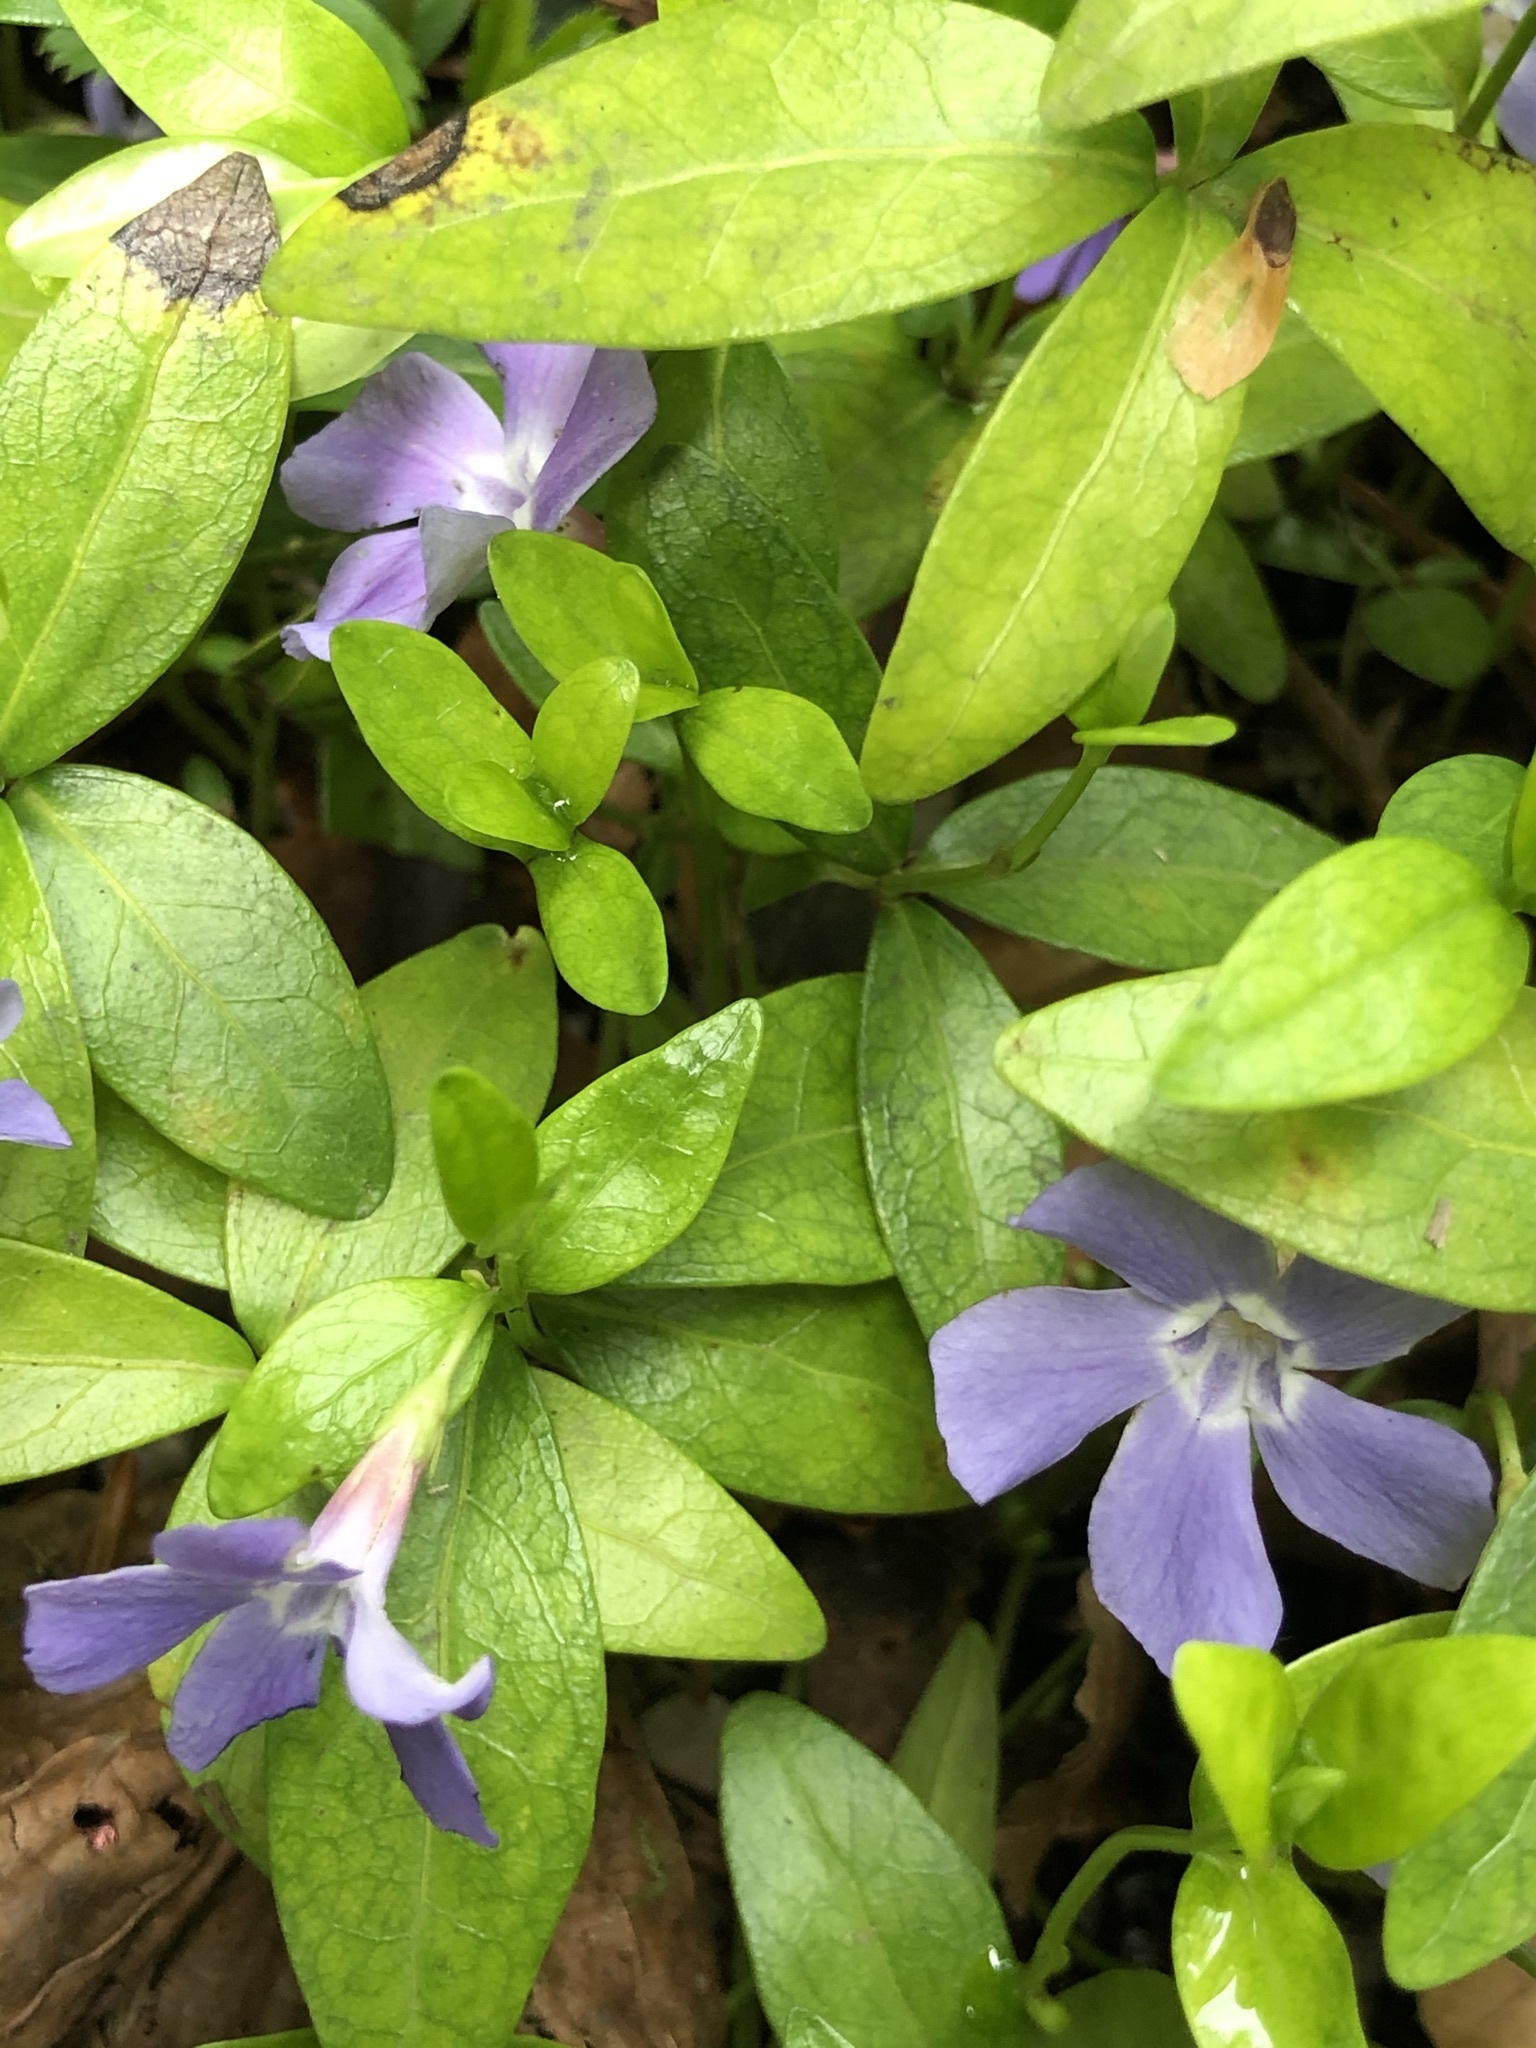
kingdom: Plantae
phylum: Tracheophyta
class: Magnoliopsida
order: Gentianales
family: Apocynaceae
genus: Vinca
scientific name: Vinca minor
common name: Lesser periwinkle
